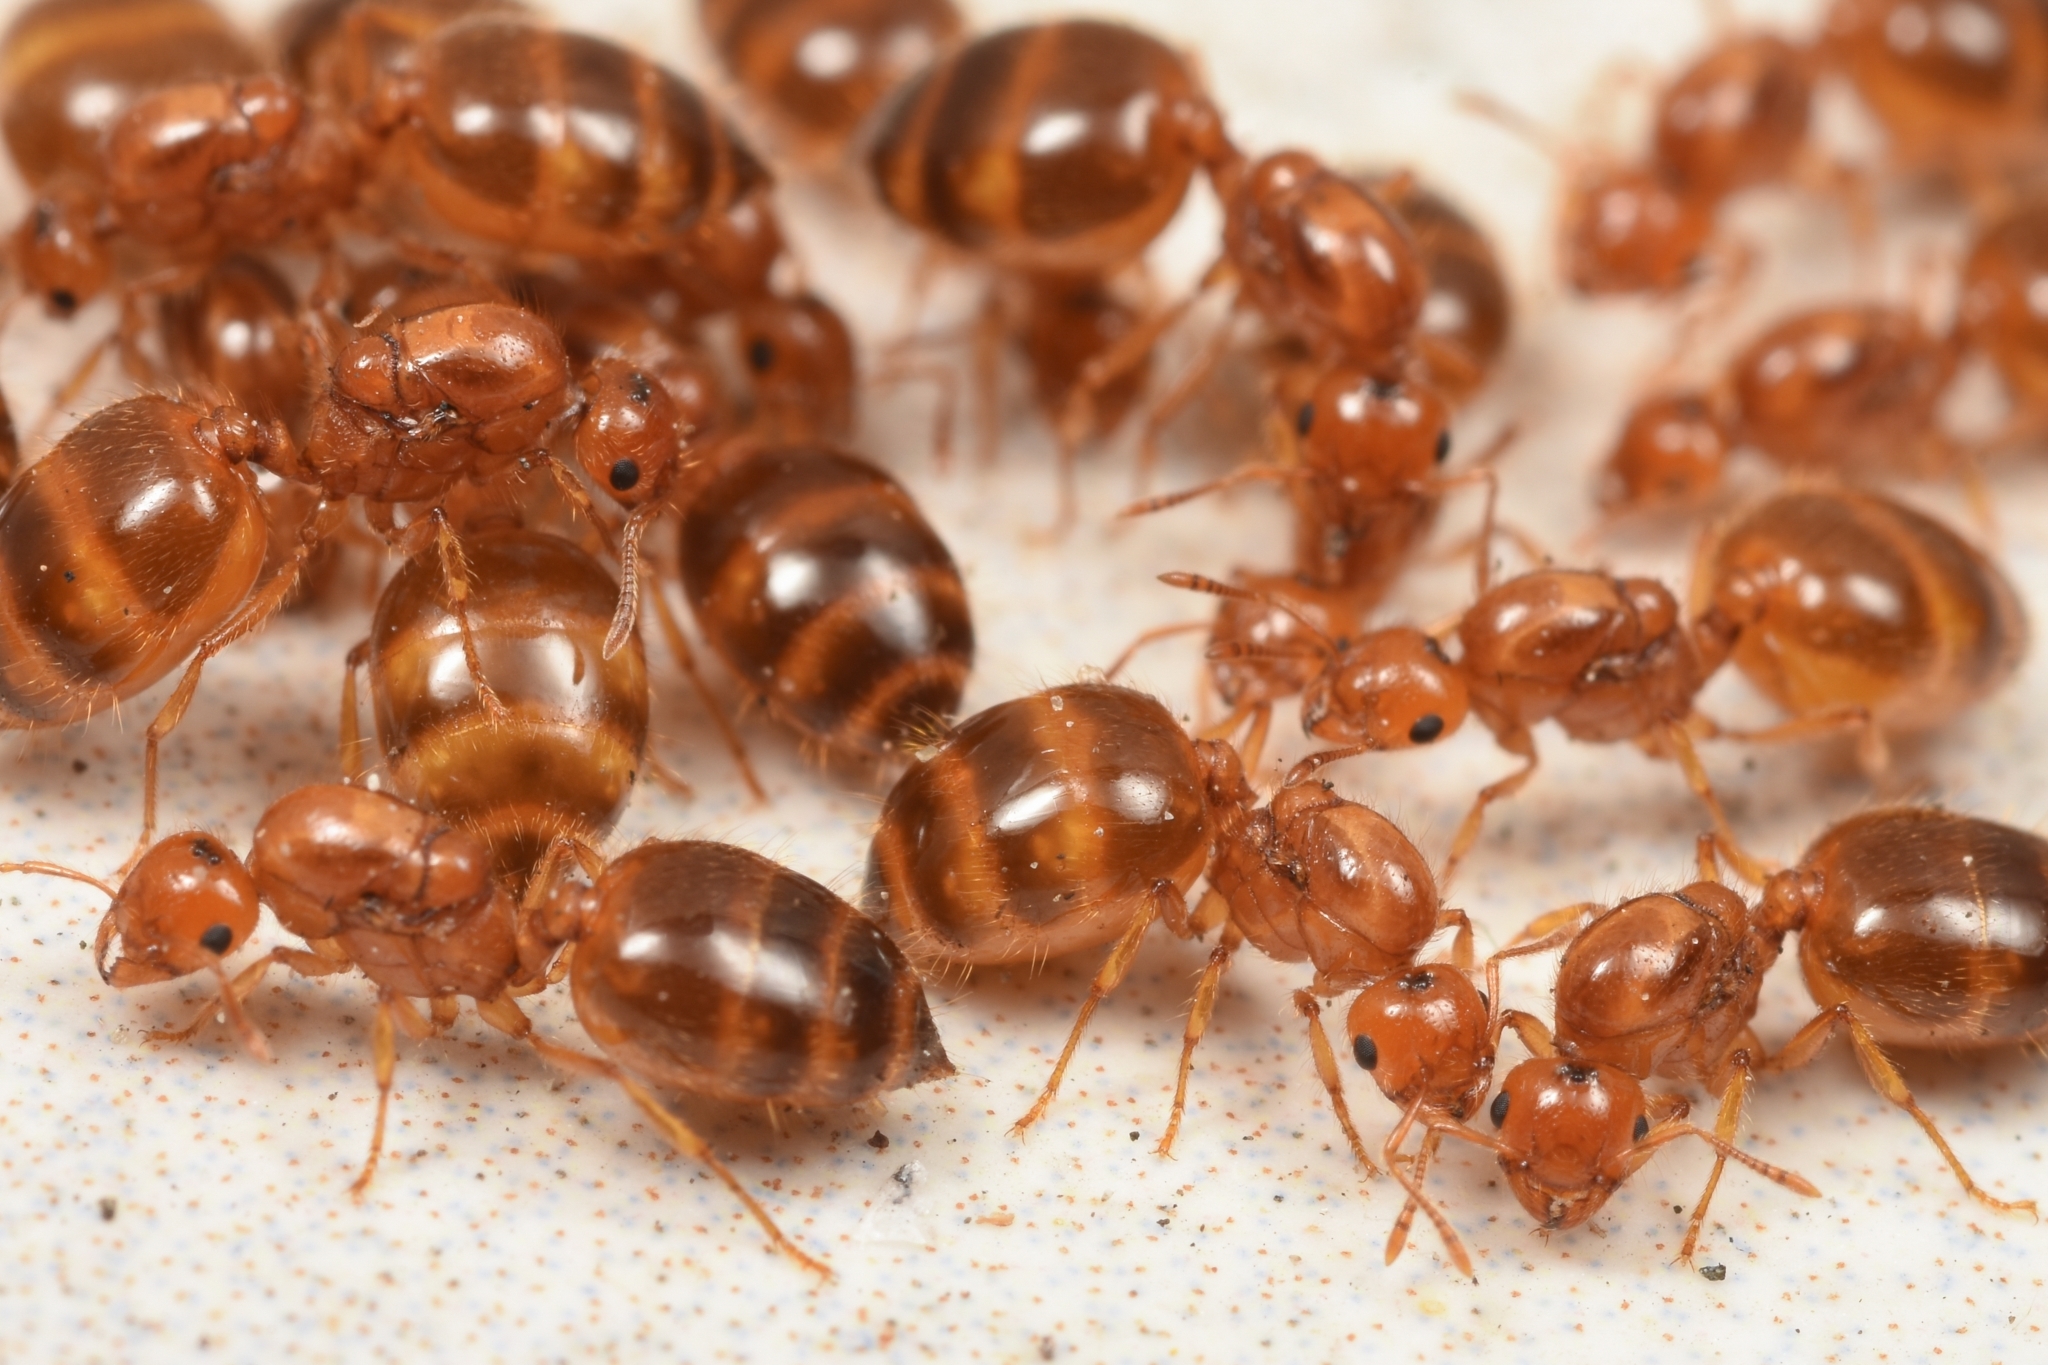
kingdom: Animalia
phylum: Arthropoda
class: Insecta
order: Hymenoptera
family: Formicidae
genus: Crematogaster
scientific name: Crematogaster osakensis
